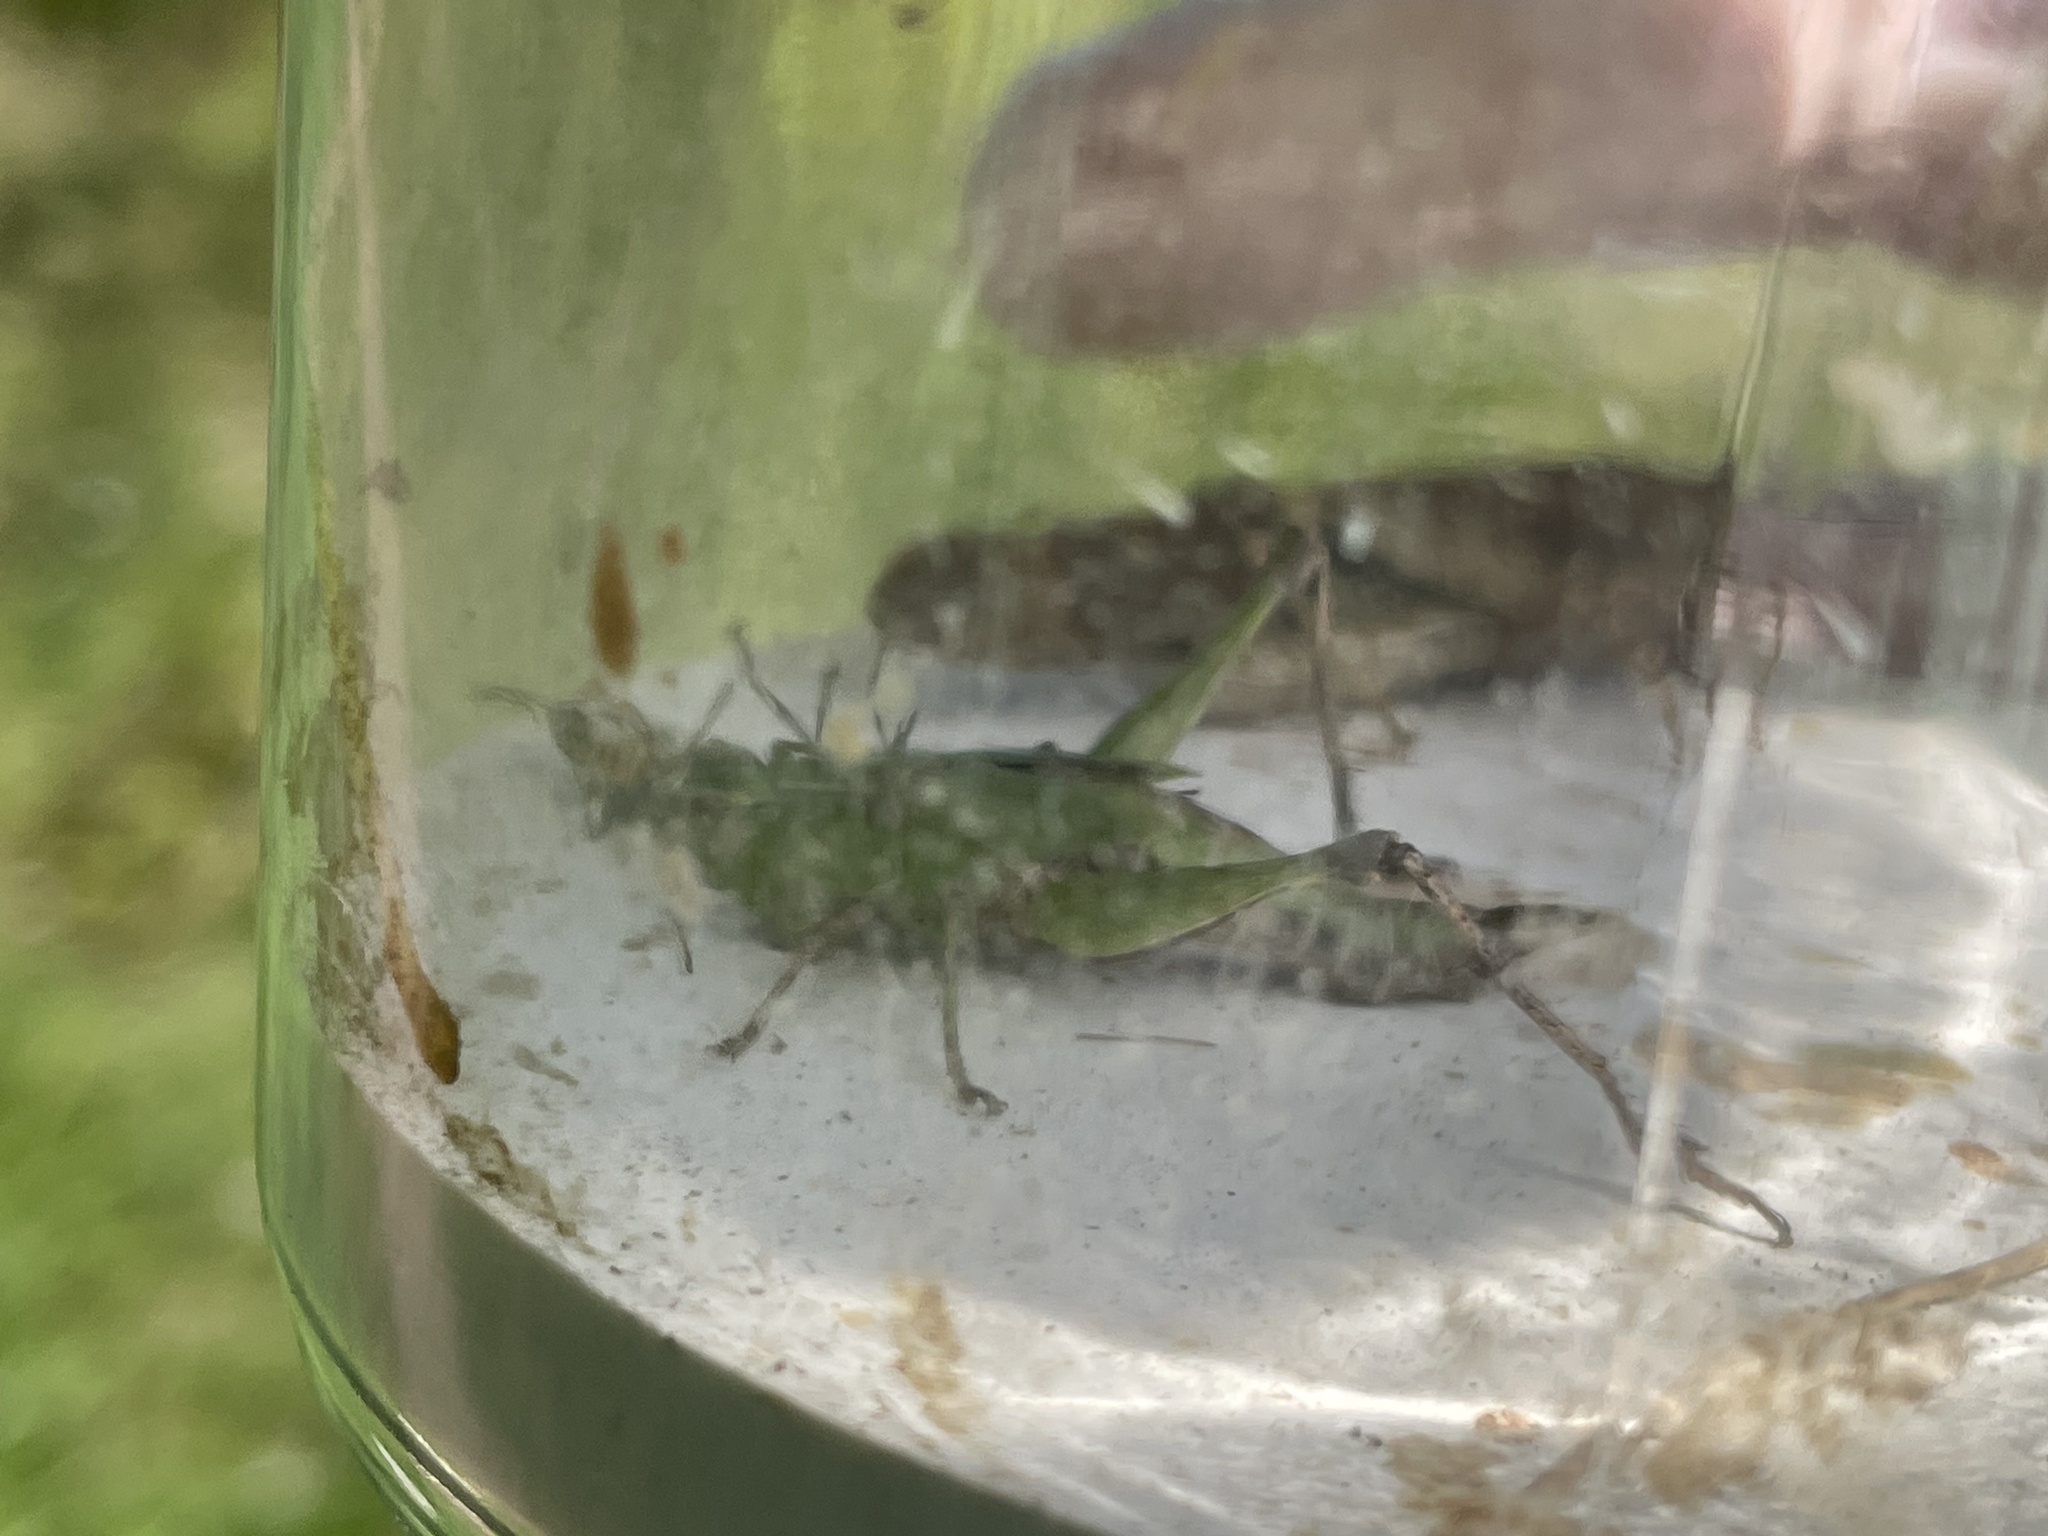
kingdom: Animalia
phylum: Arthropoda
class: Insecta
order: Orthoptera
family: Acrididae
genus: Dichromorpha
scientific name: Dichromorpha viridis
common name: Short-winged green grasshopper
